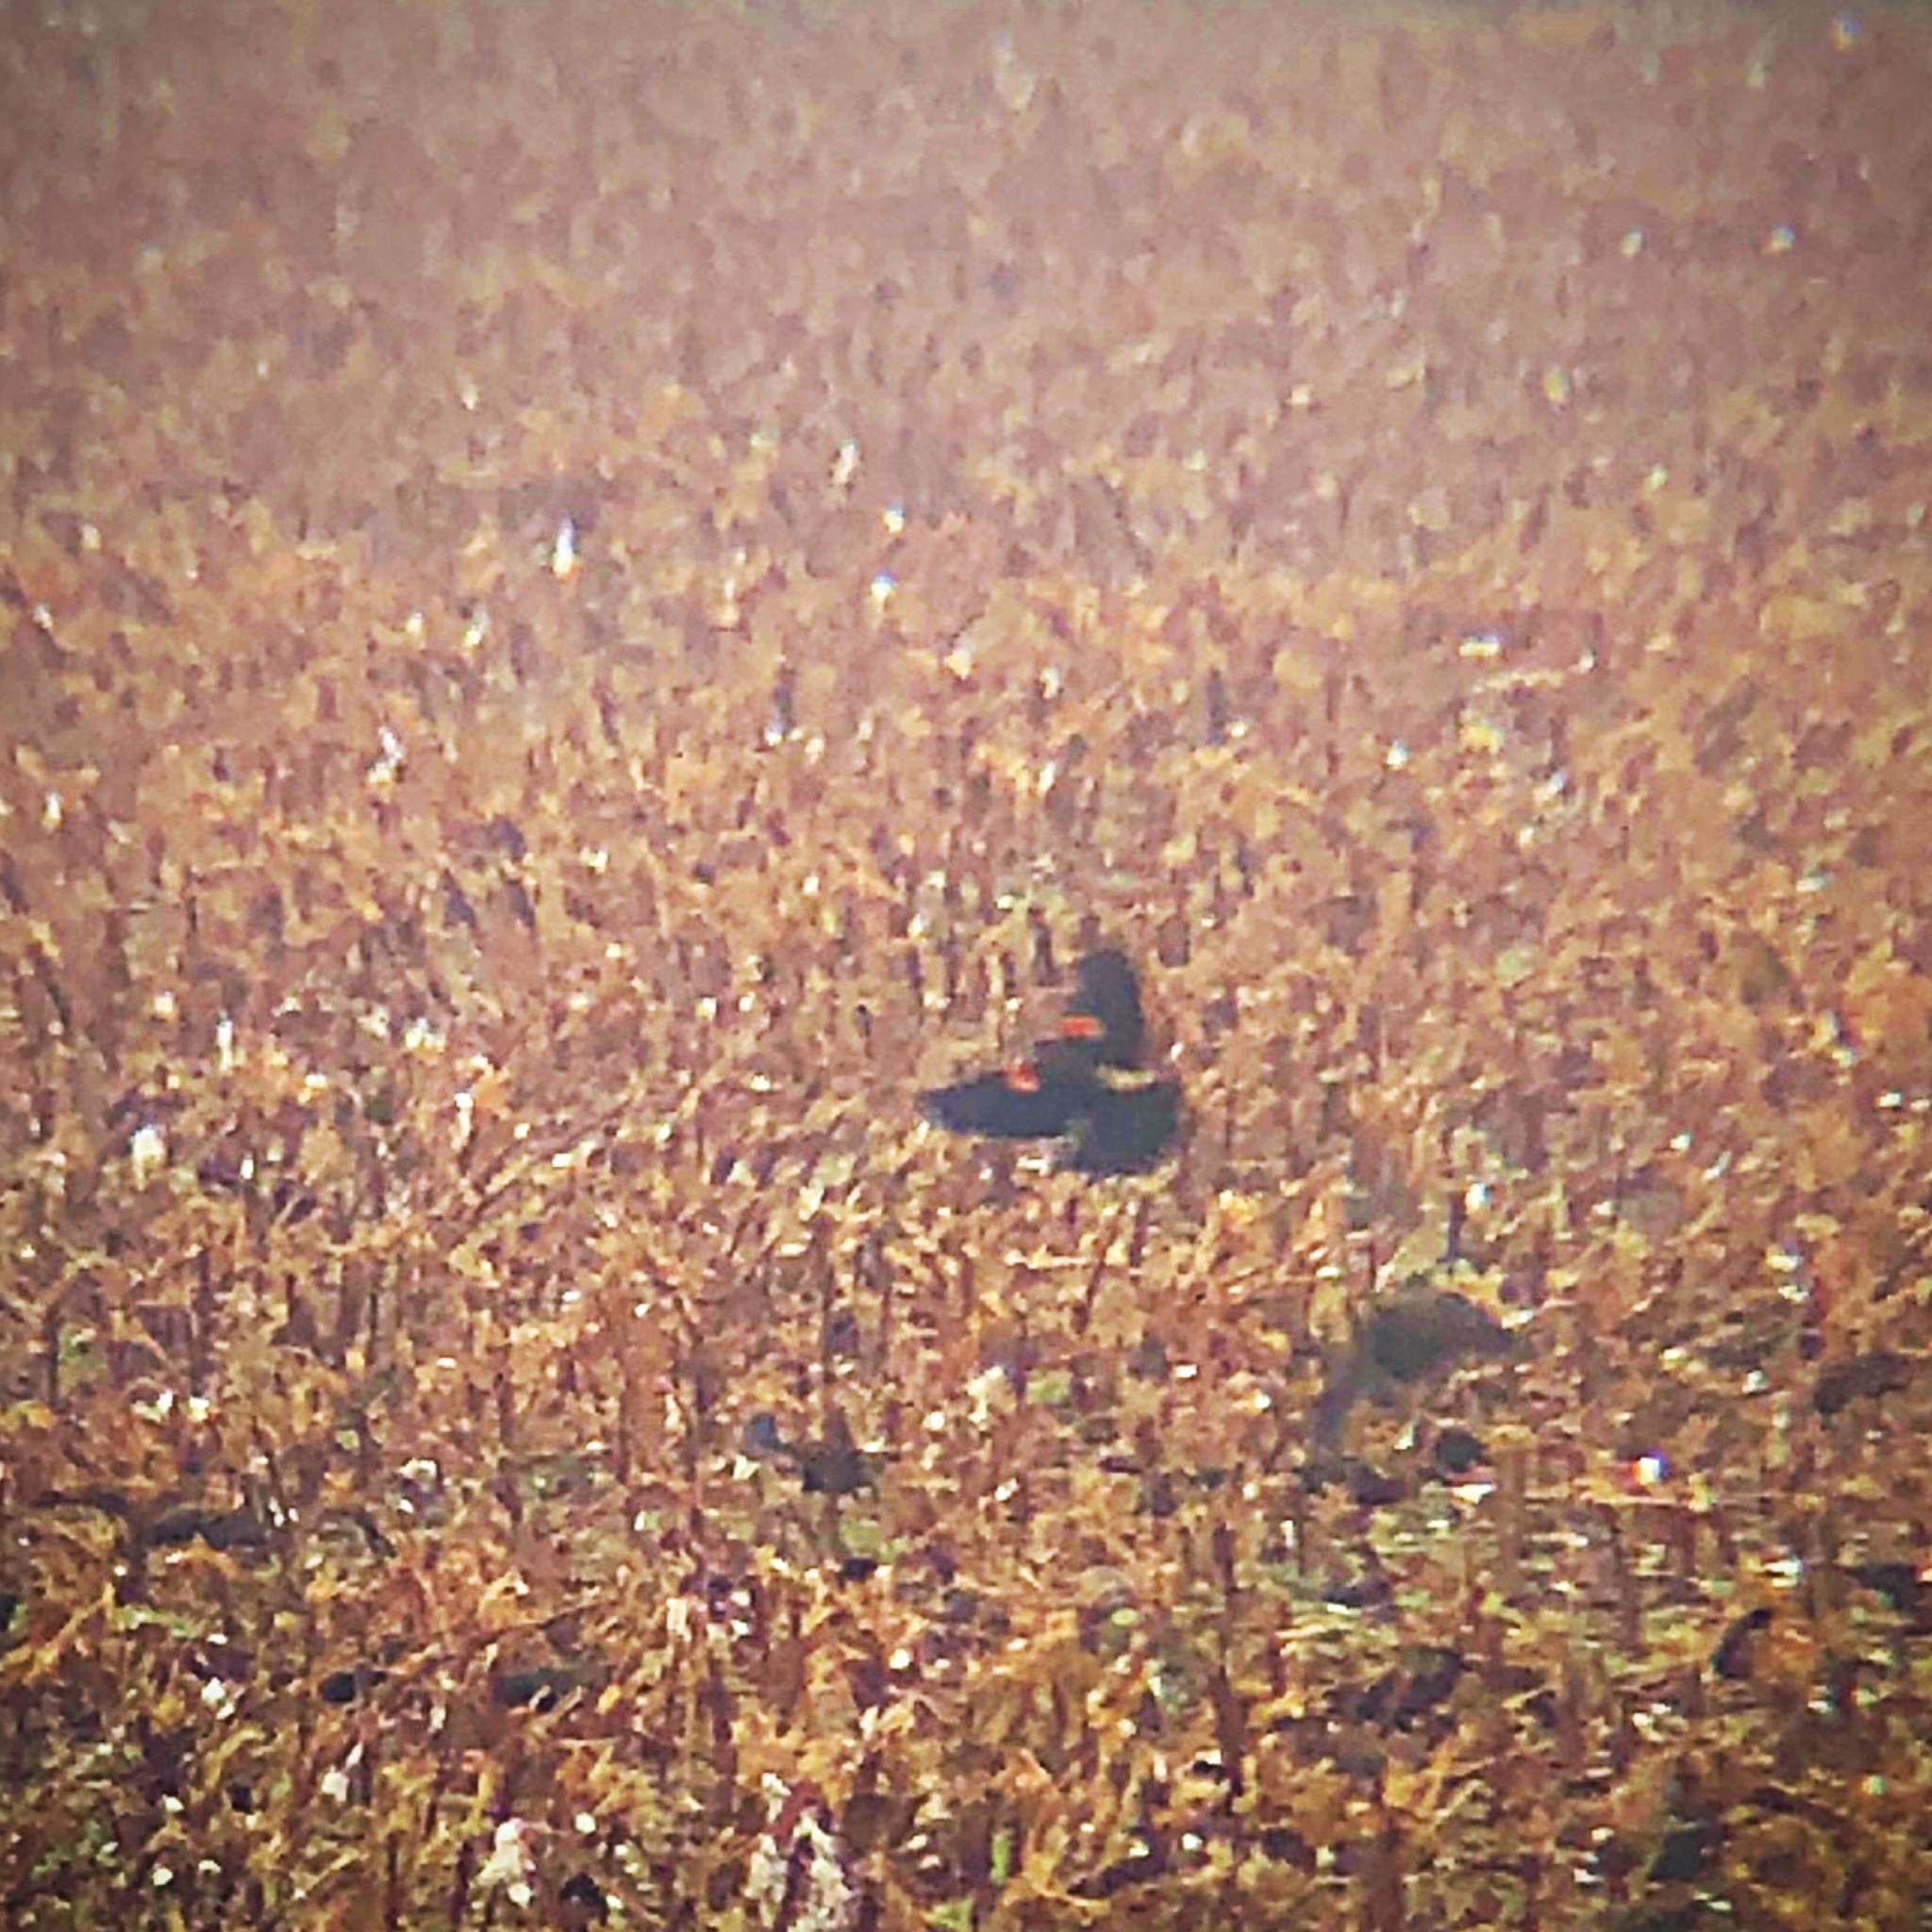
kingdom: Animalia
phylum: Chordata
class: Aves
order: Passeriformes
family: Icteridae
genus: Agelaius
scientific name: Agelaius phoeniceus
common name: Red-winged blackbird
